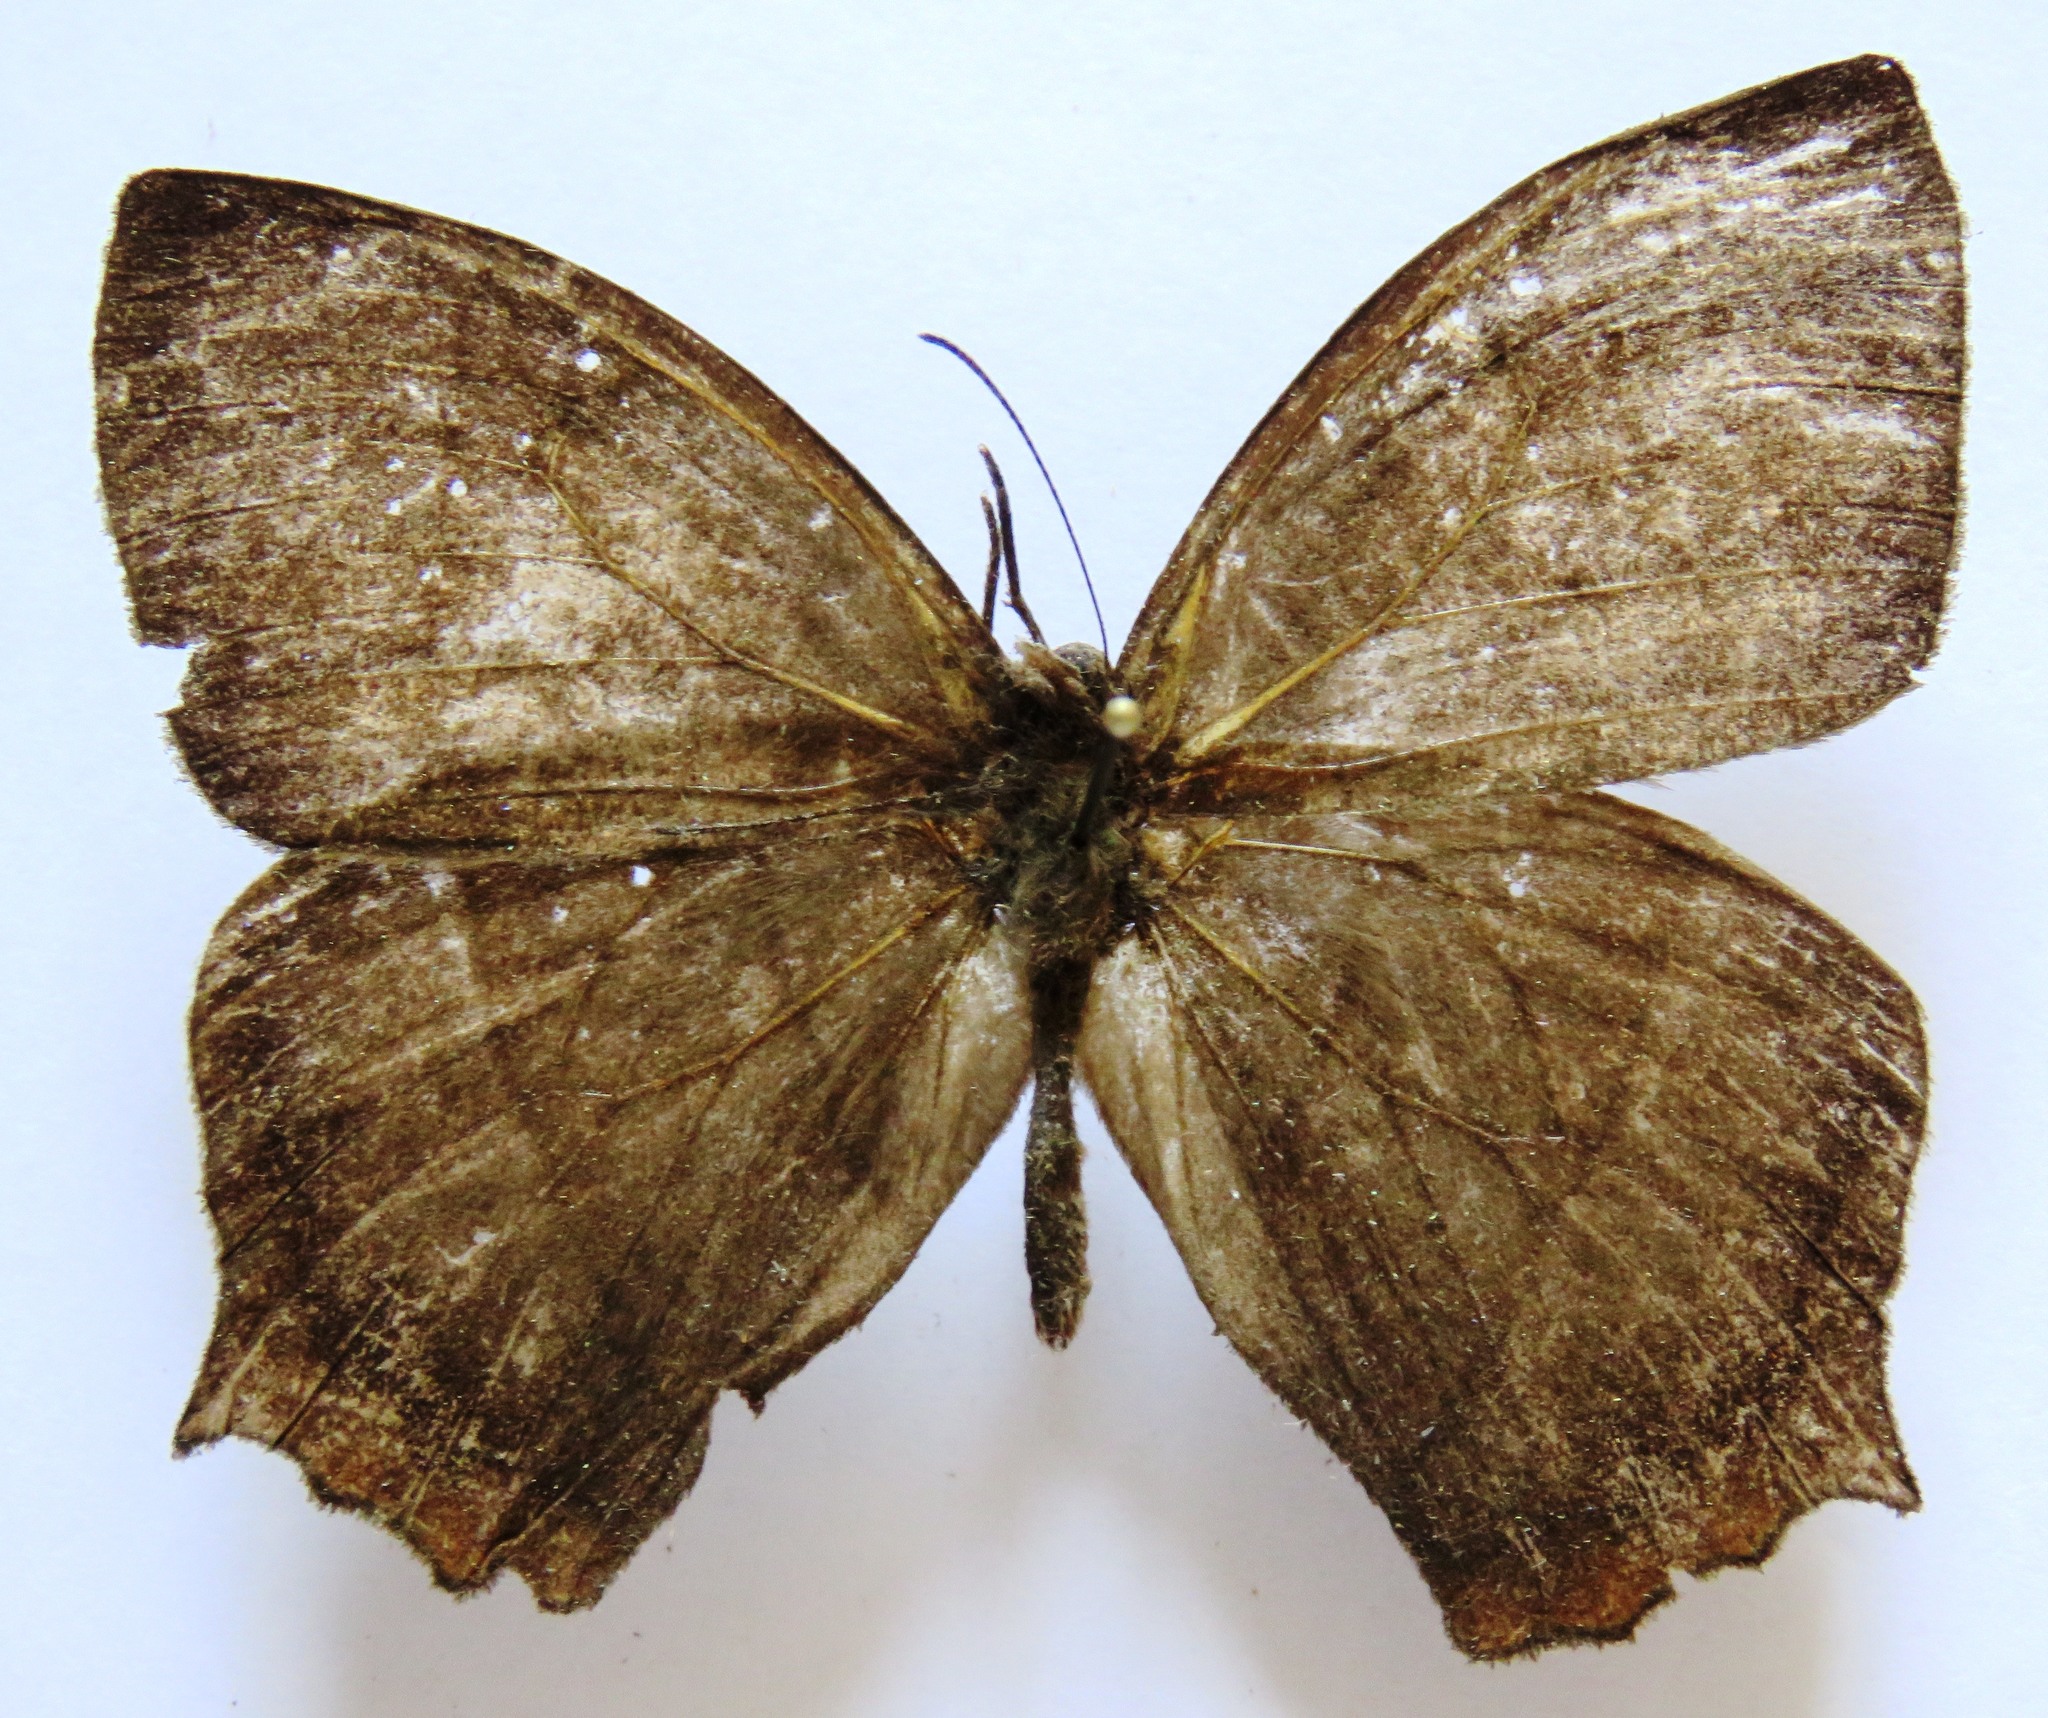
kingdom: Animalia
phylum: Arthropoda
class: Insecta
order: Lepidoptera
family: Nymphalidae
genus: Taygetis
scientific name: Taygetis virgilia
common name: Stub-tailed satyr
